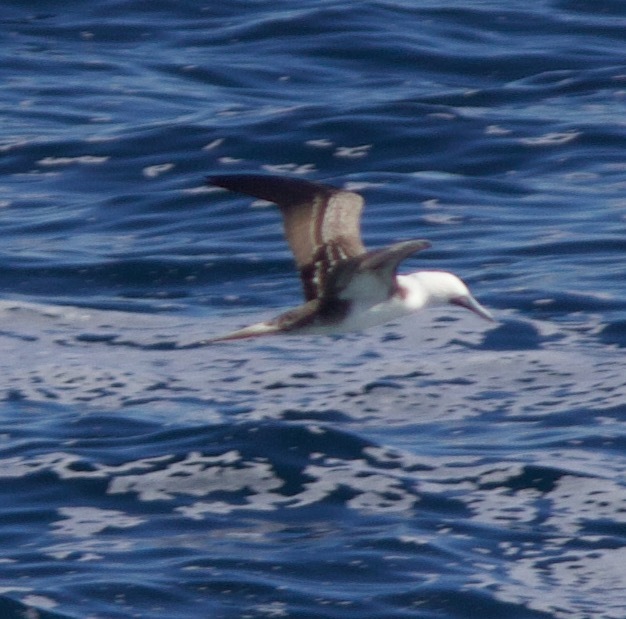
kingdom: Animalia
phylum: Chordata
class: Aves
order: Suliformes
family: Sulidae
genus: Sula
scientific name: Sula variegata
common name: Peruvian booby
